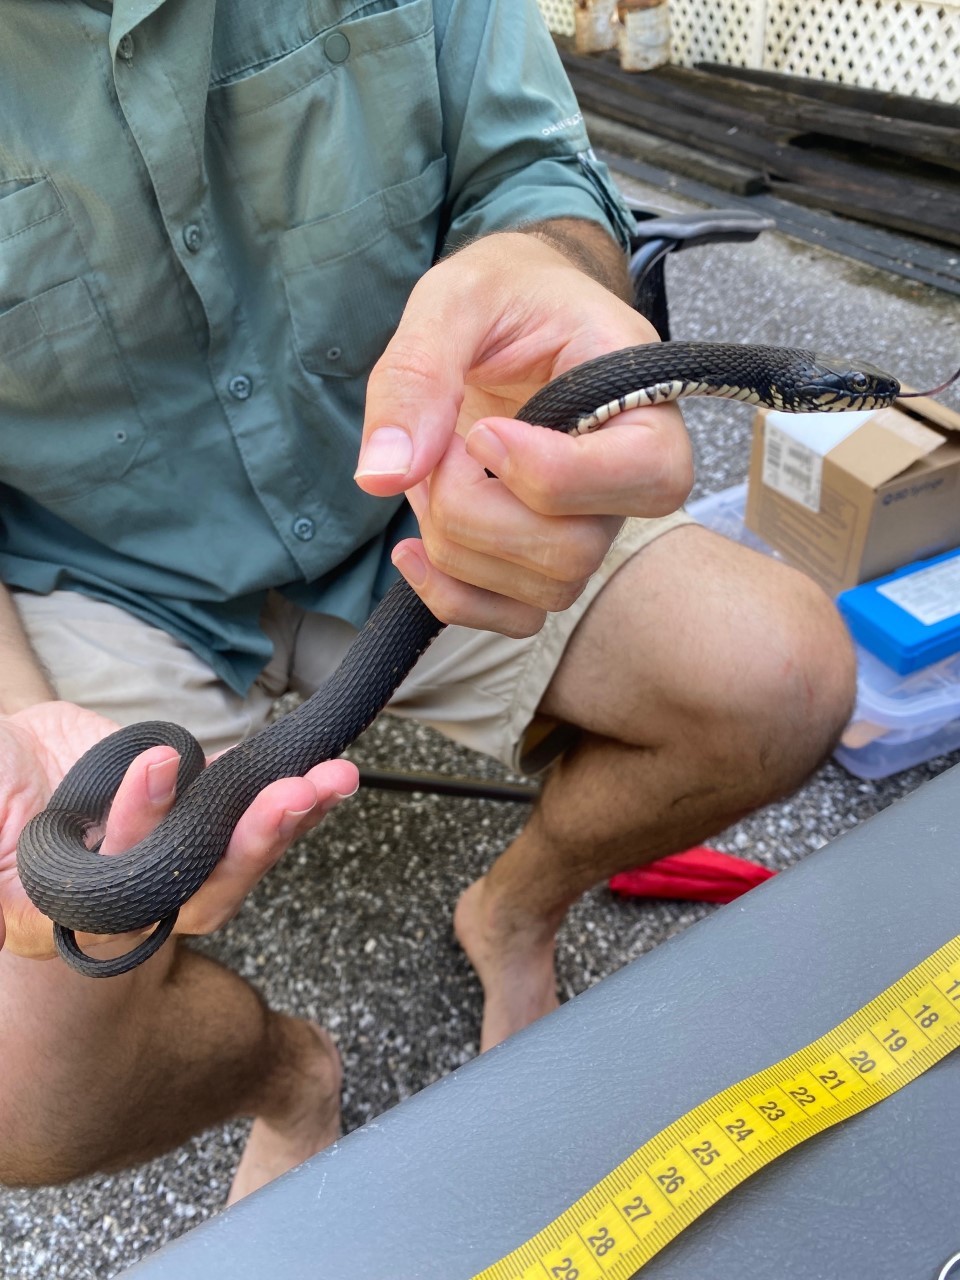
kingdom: Animalia
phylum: Chordata
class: Squamata
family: Colubridae
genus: Nerodia
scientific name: Nerodia fasciata
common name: Southern water snake
